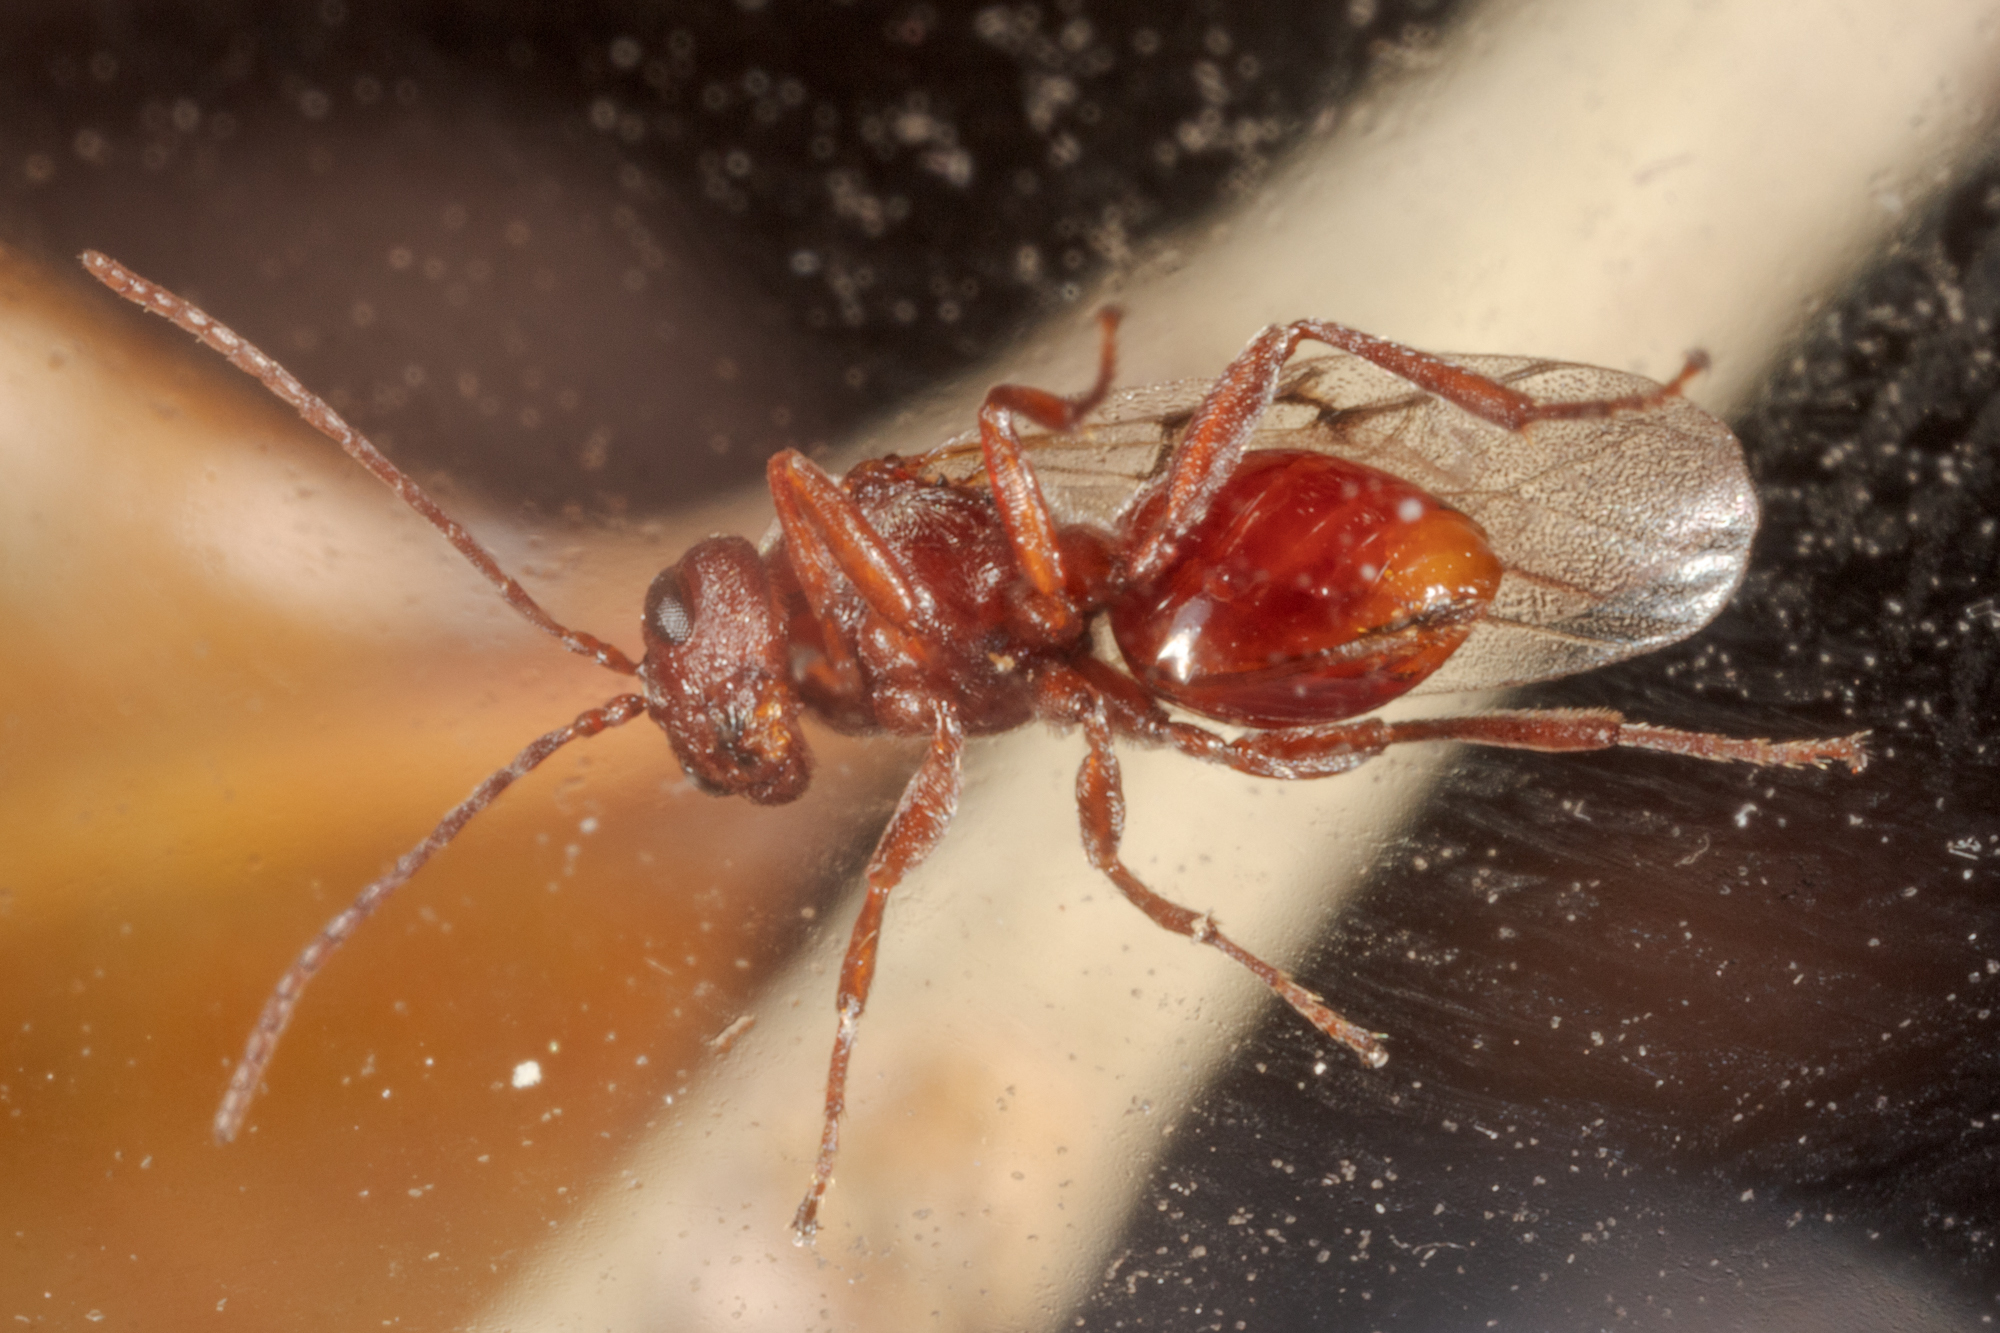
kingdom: Animalia
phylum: Arthropoda
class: Insecta
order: Hymenoptera
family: Cynipidae
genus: Callirhytis
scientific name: Callirhytis
